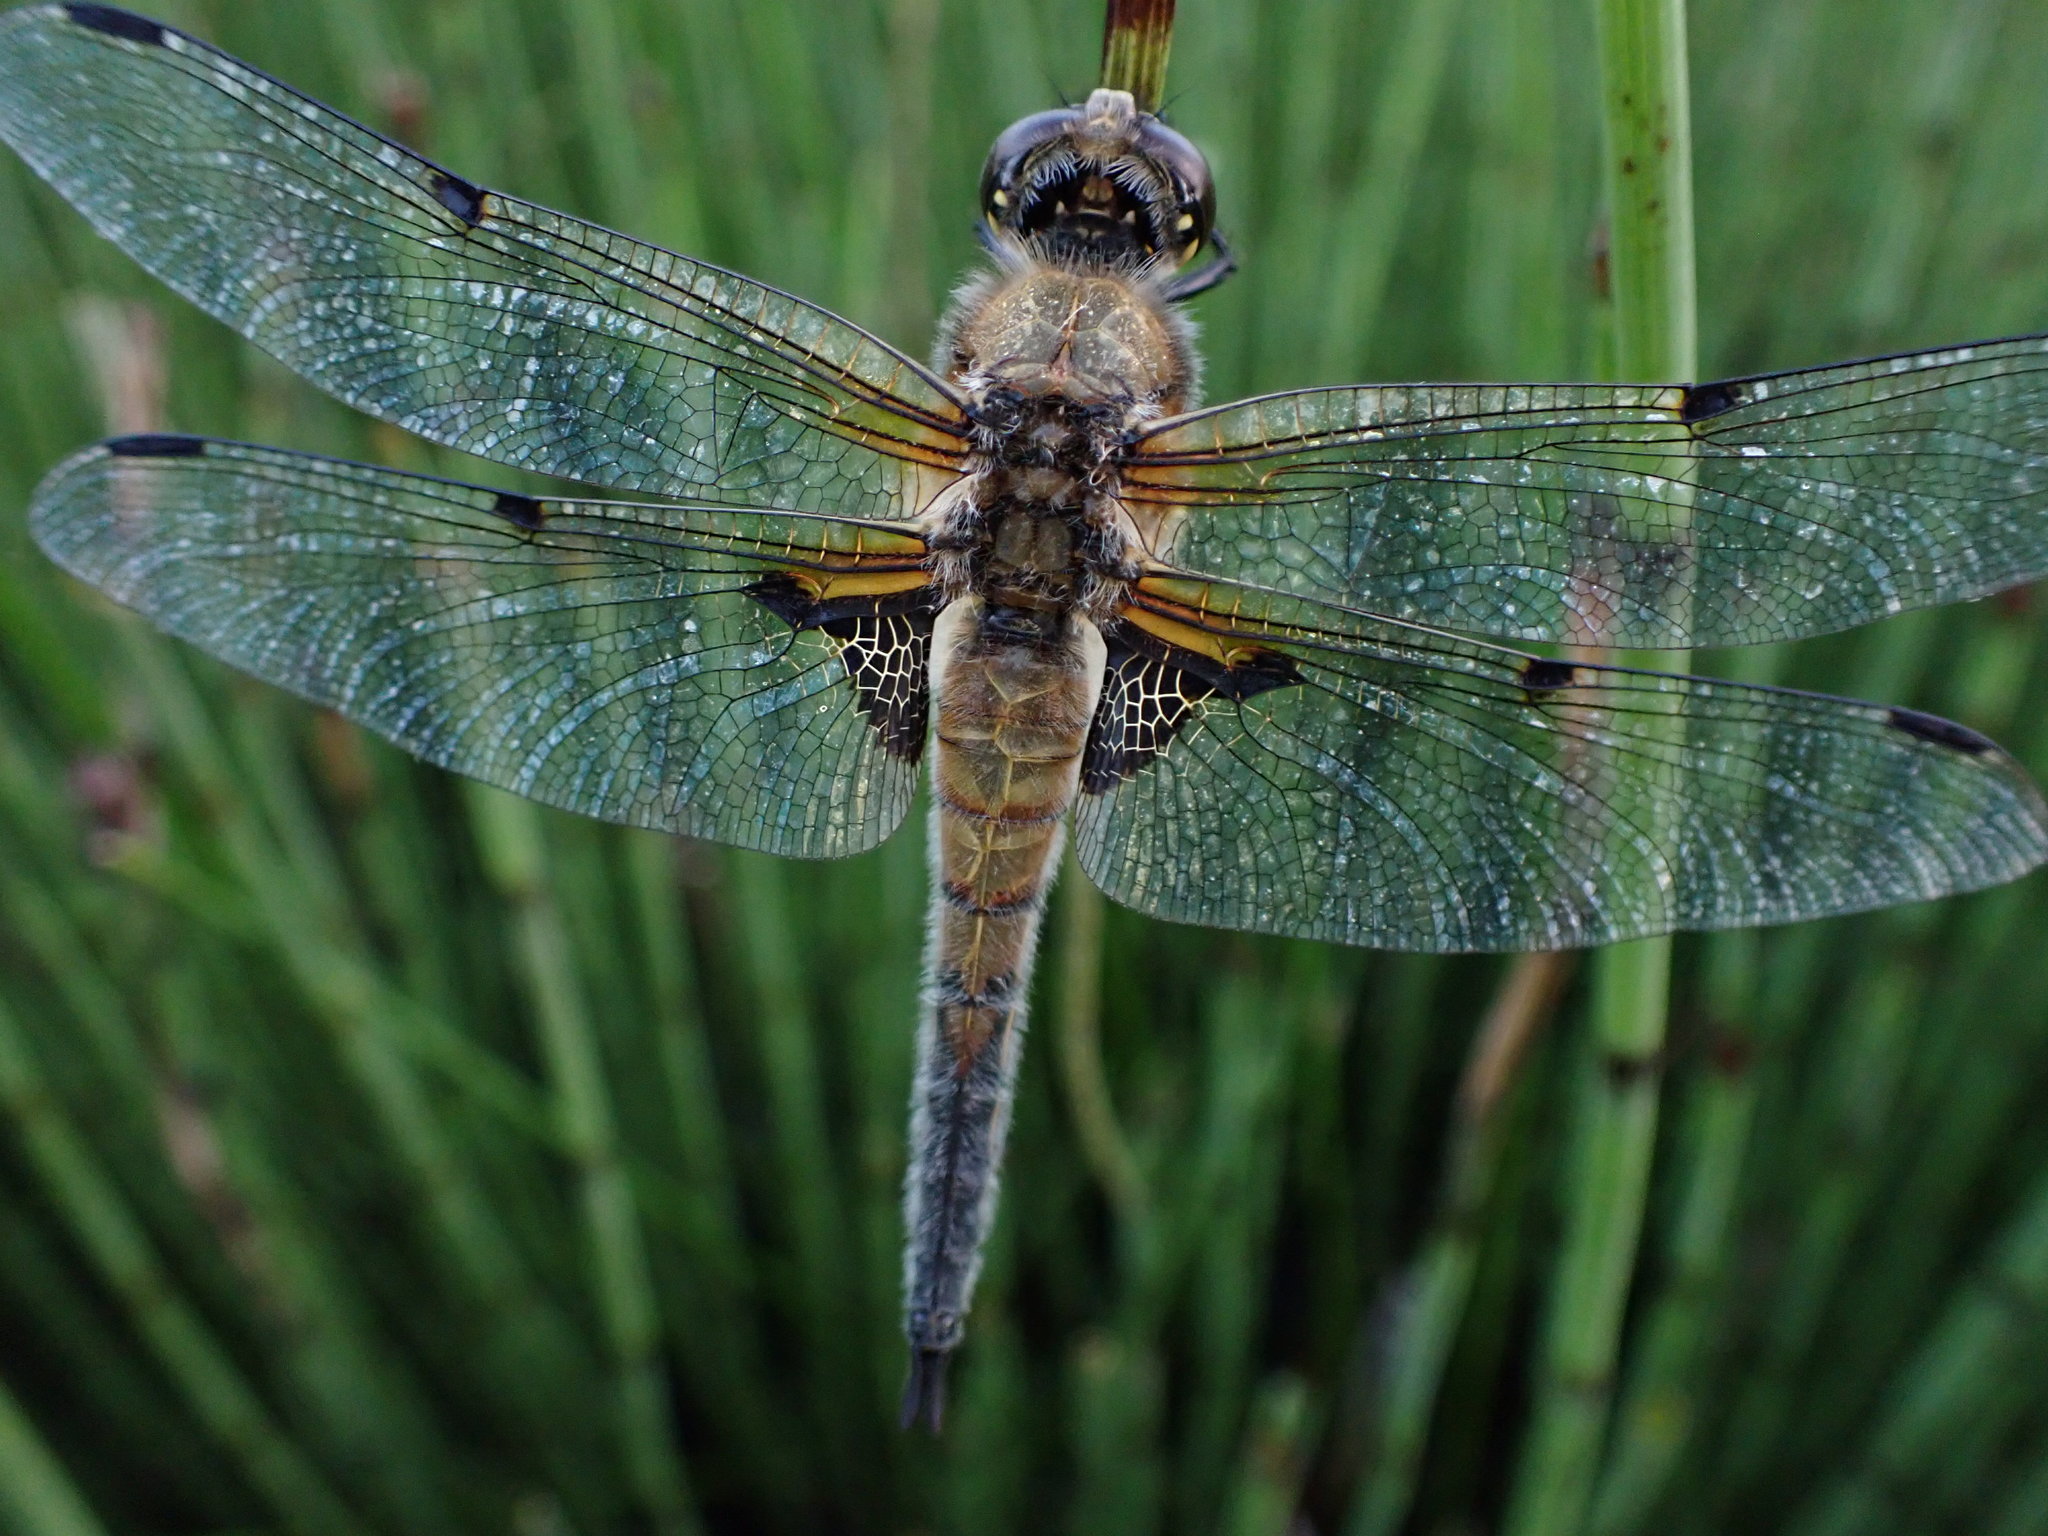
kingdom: Animalia
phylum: Arthropoda
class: Insecta
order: Odonata
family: Libellulidae
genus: Libellula
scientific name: Libellula quadrimaculata
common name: Four-spotted chaser
